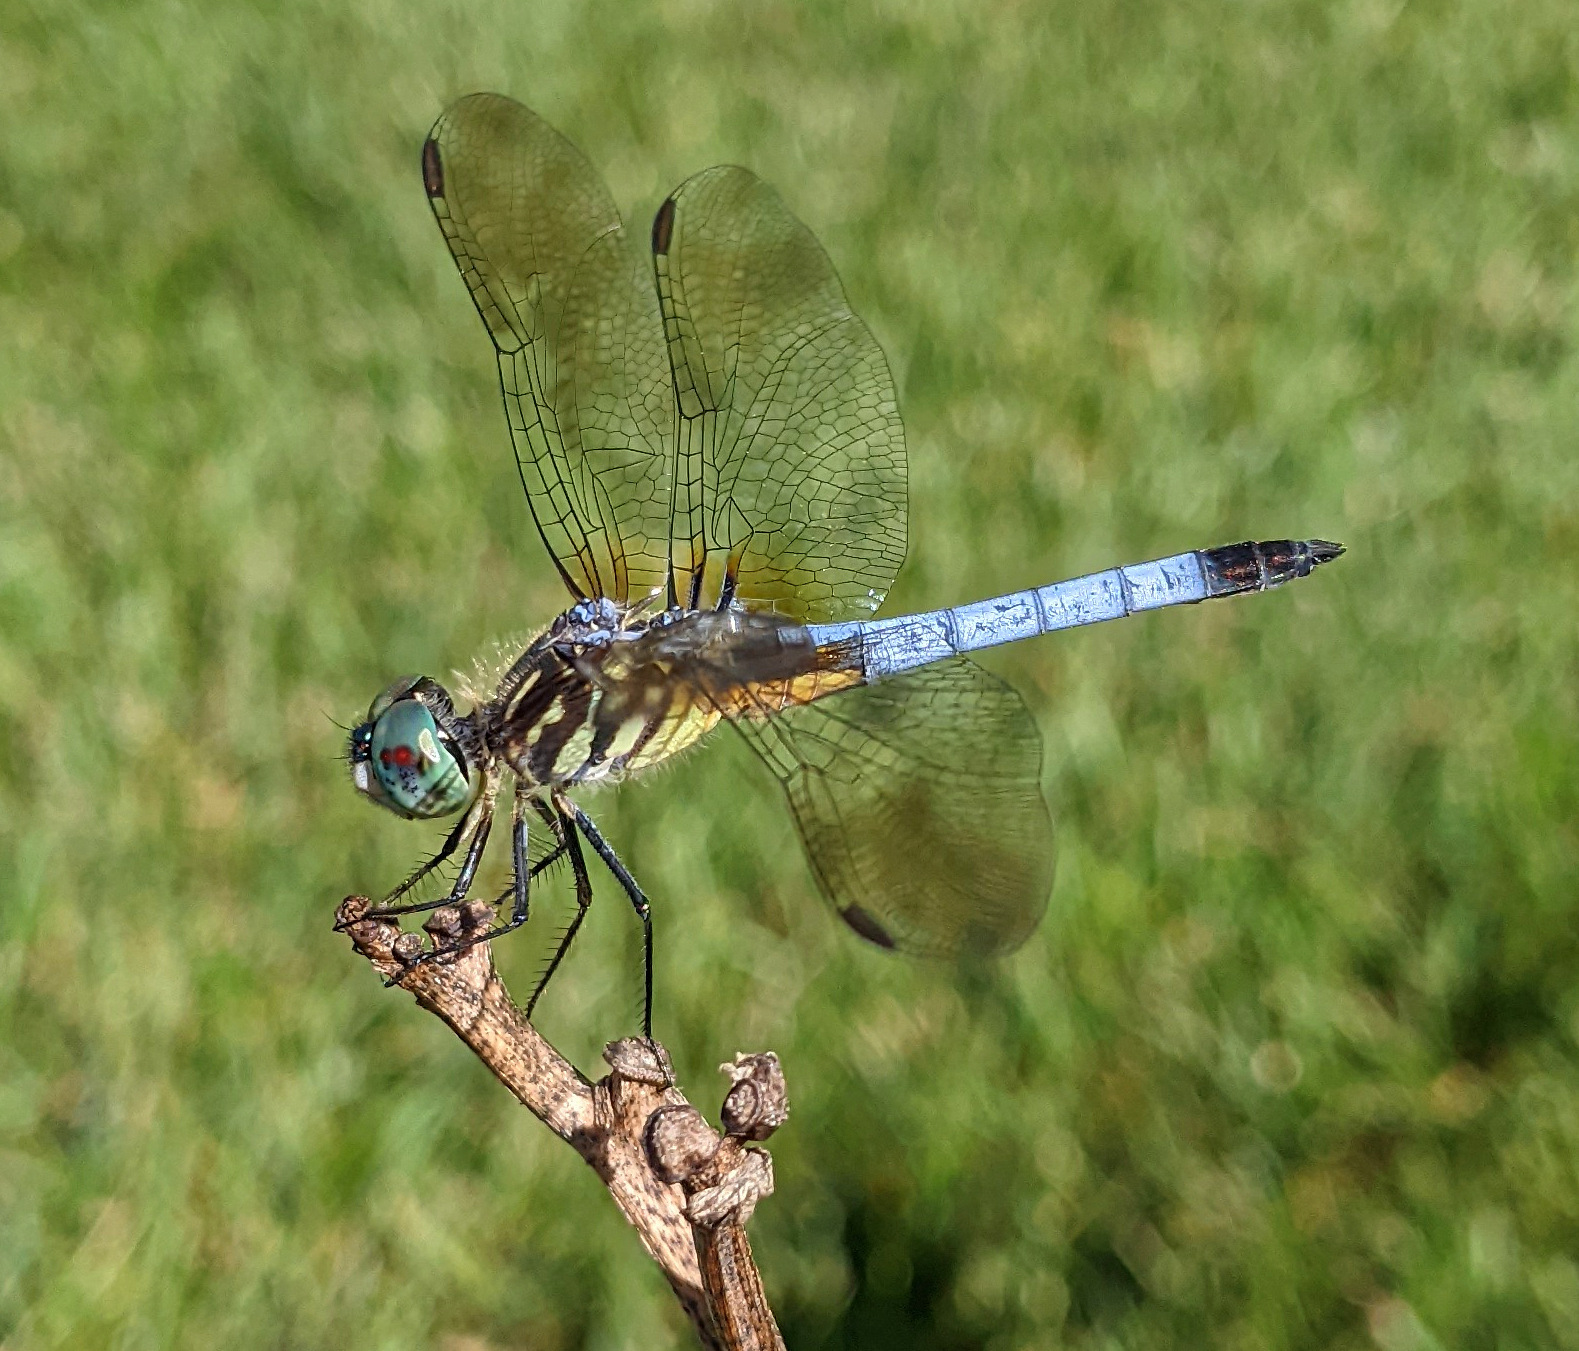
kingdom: Animalia
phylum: Arthropoda
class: Insecta
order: Odonata
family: Libellulidae
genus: Pachydiplax
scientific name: Pachydiplax longipennis
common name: Blue dasher
